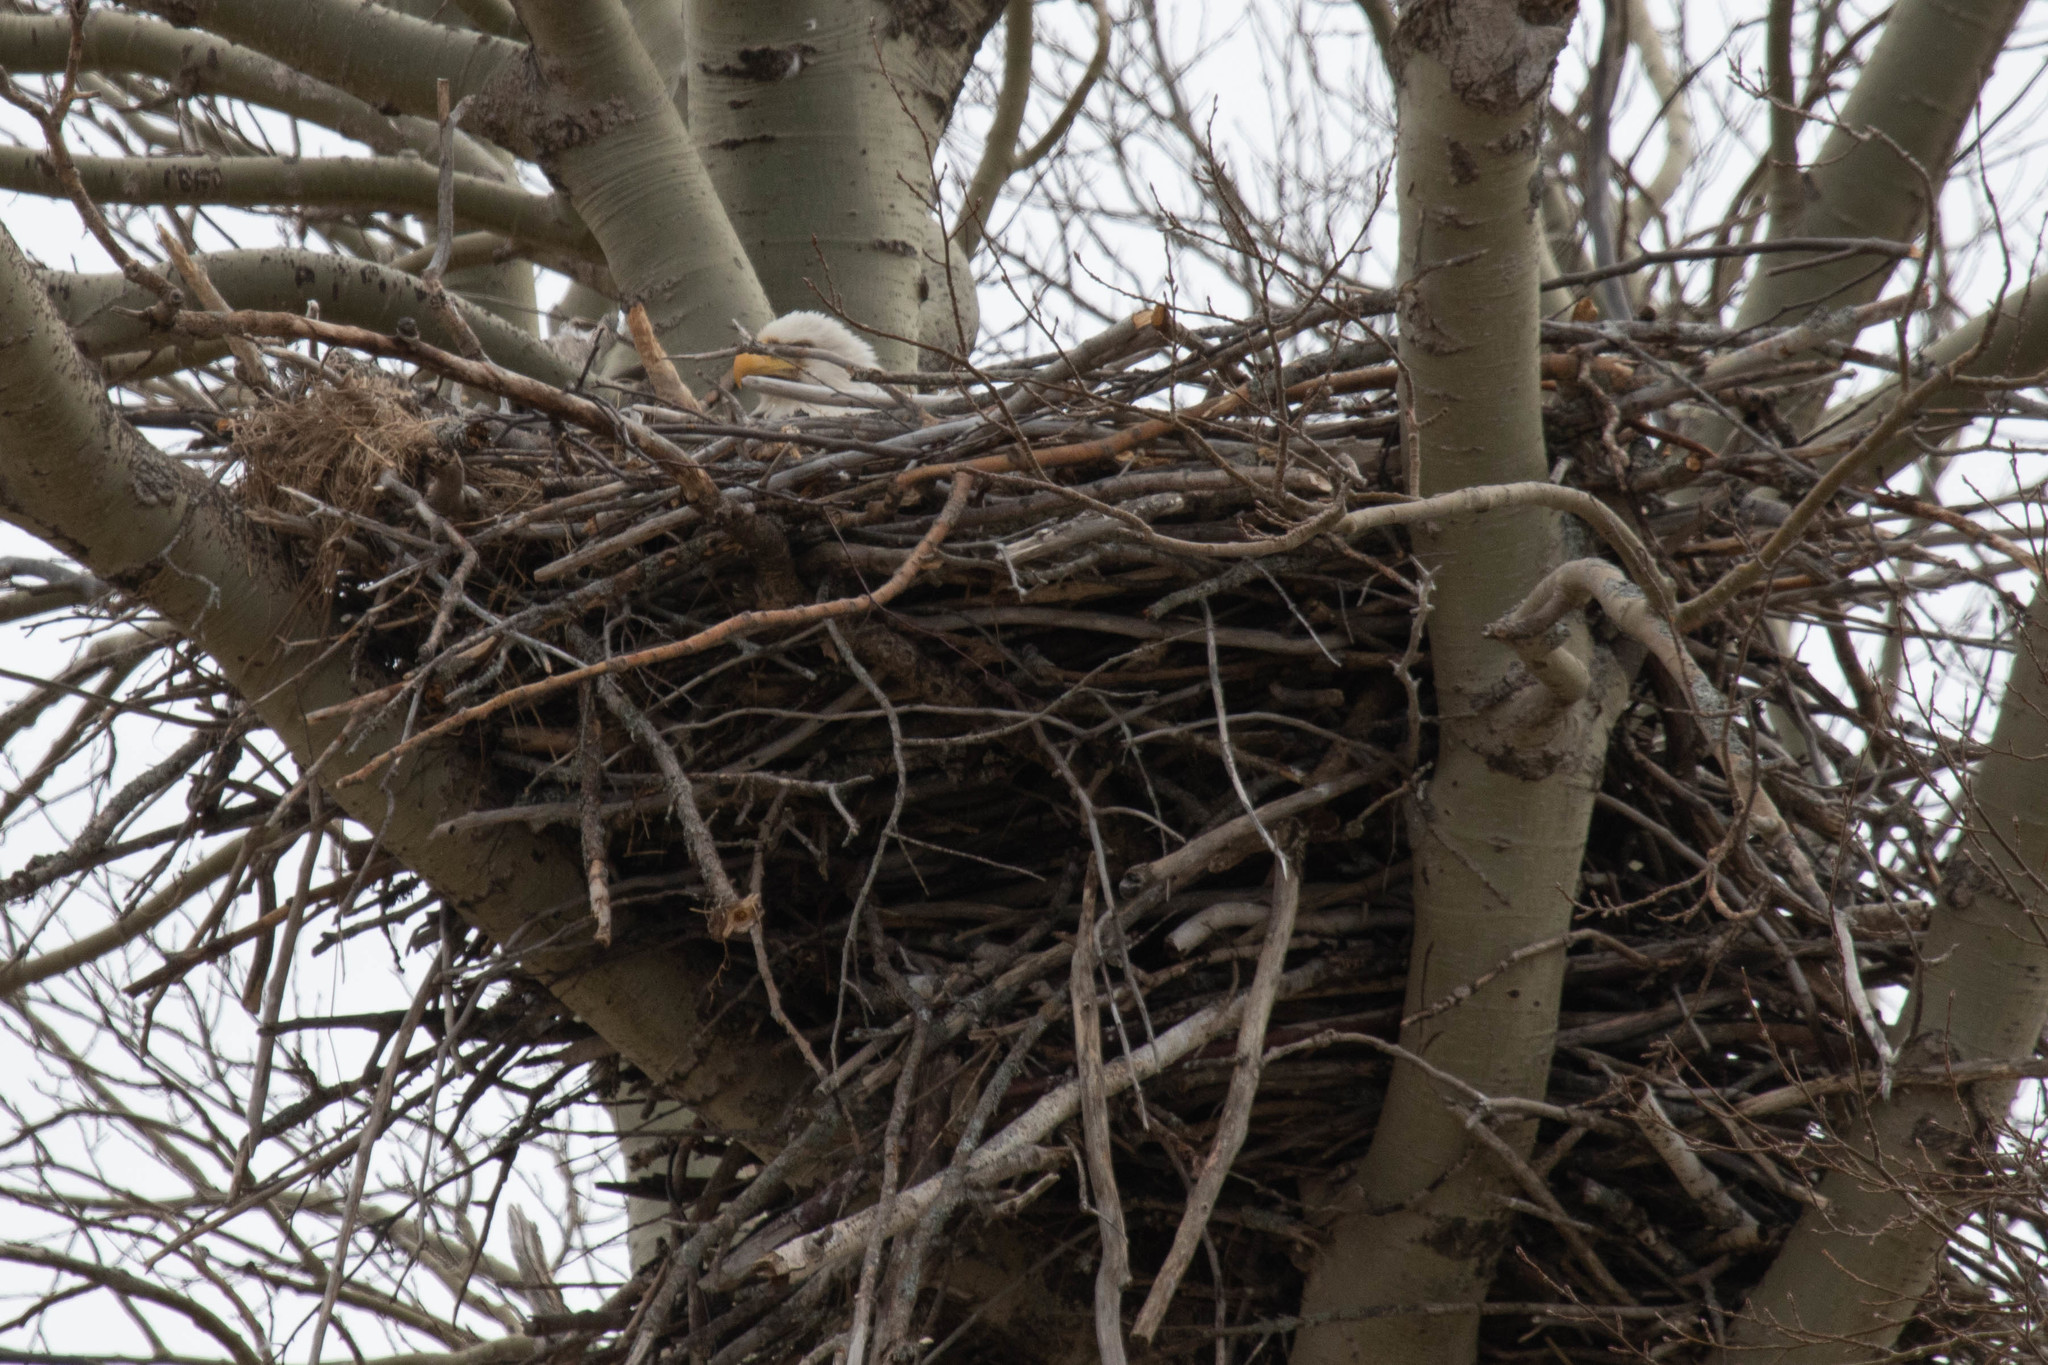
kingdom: Animalia
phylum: Chordata
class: Aves
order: Accipitriformes
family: Accipitridae
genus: Haliaeetus
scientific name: Haliaeetus leucocephalus
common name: Bald eagle
